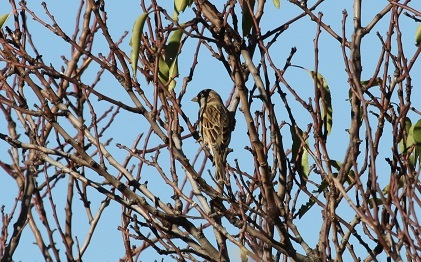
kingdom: Animalia
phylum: Chordata
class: Aves
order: Passeriformes
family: Passeridae
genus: Passer
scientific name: Passer domesticus
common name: House sparrow
